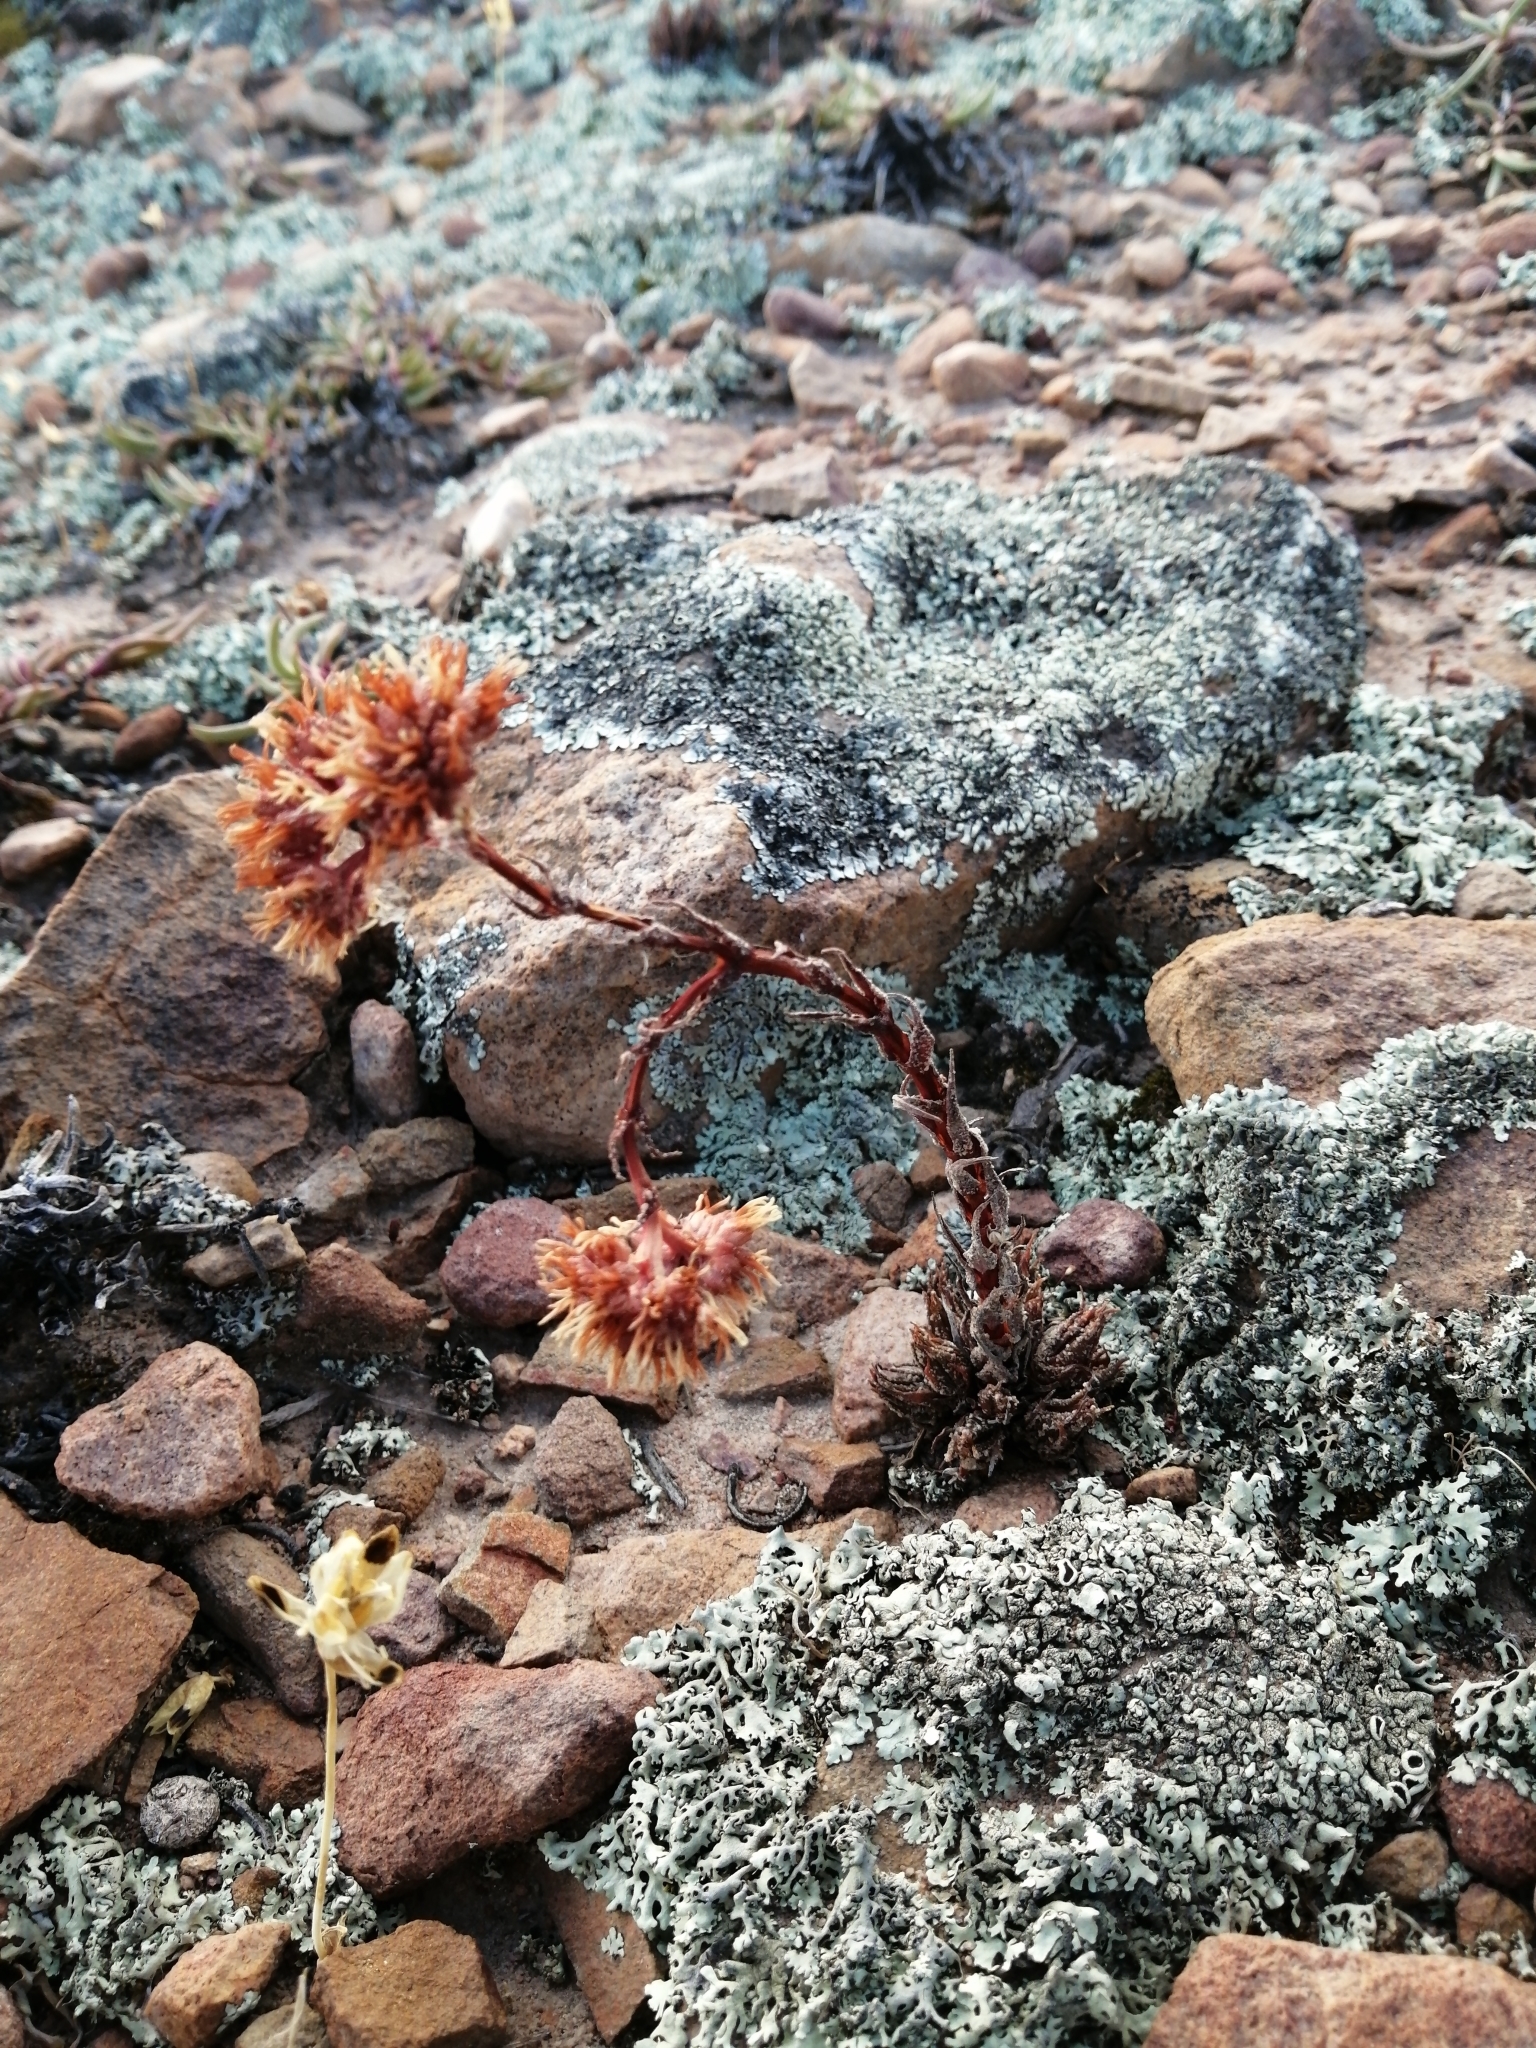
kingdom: Plantae
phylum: Tracheophyta
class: Magnoliopsida
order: Saxifragales
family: Crassulaceae
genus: Crassula
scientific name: Crassula alpestris
